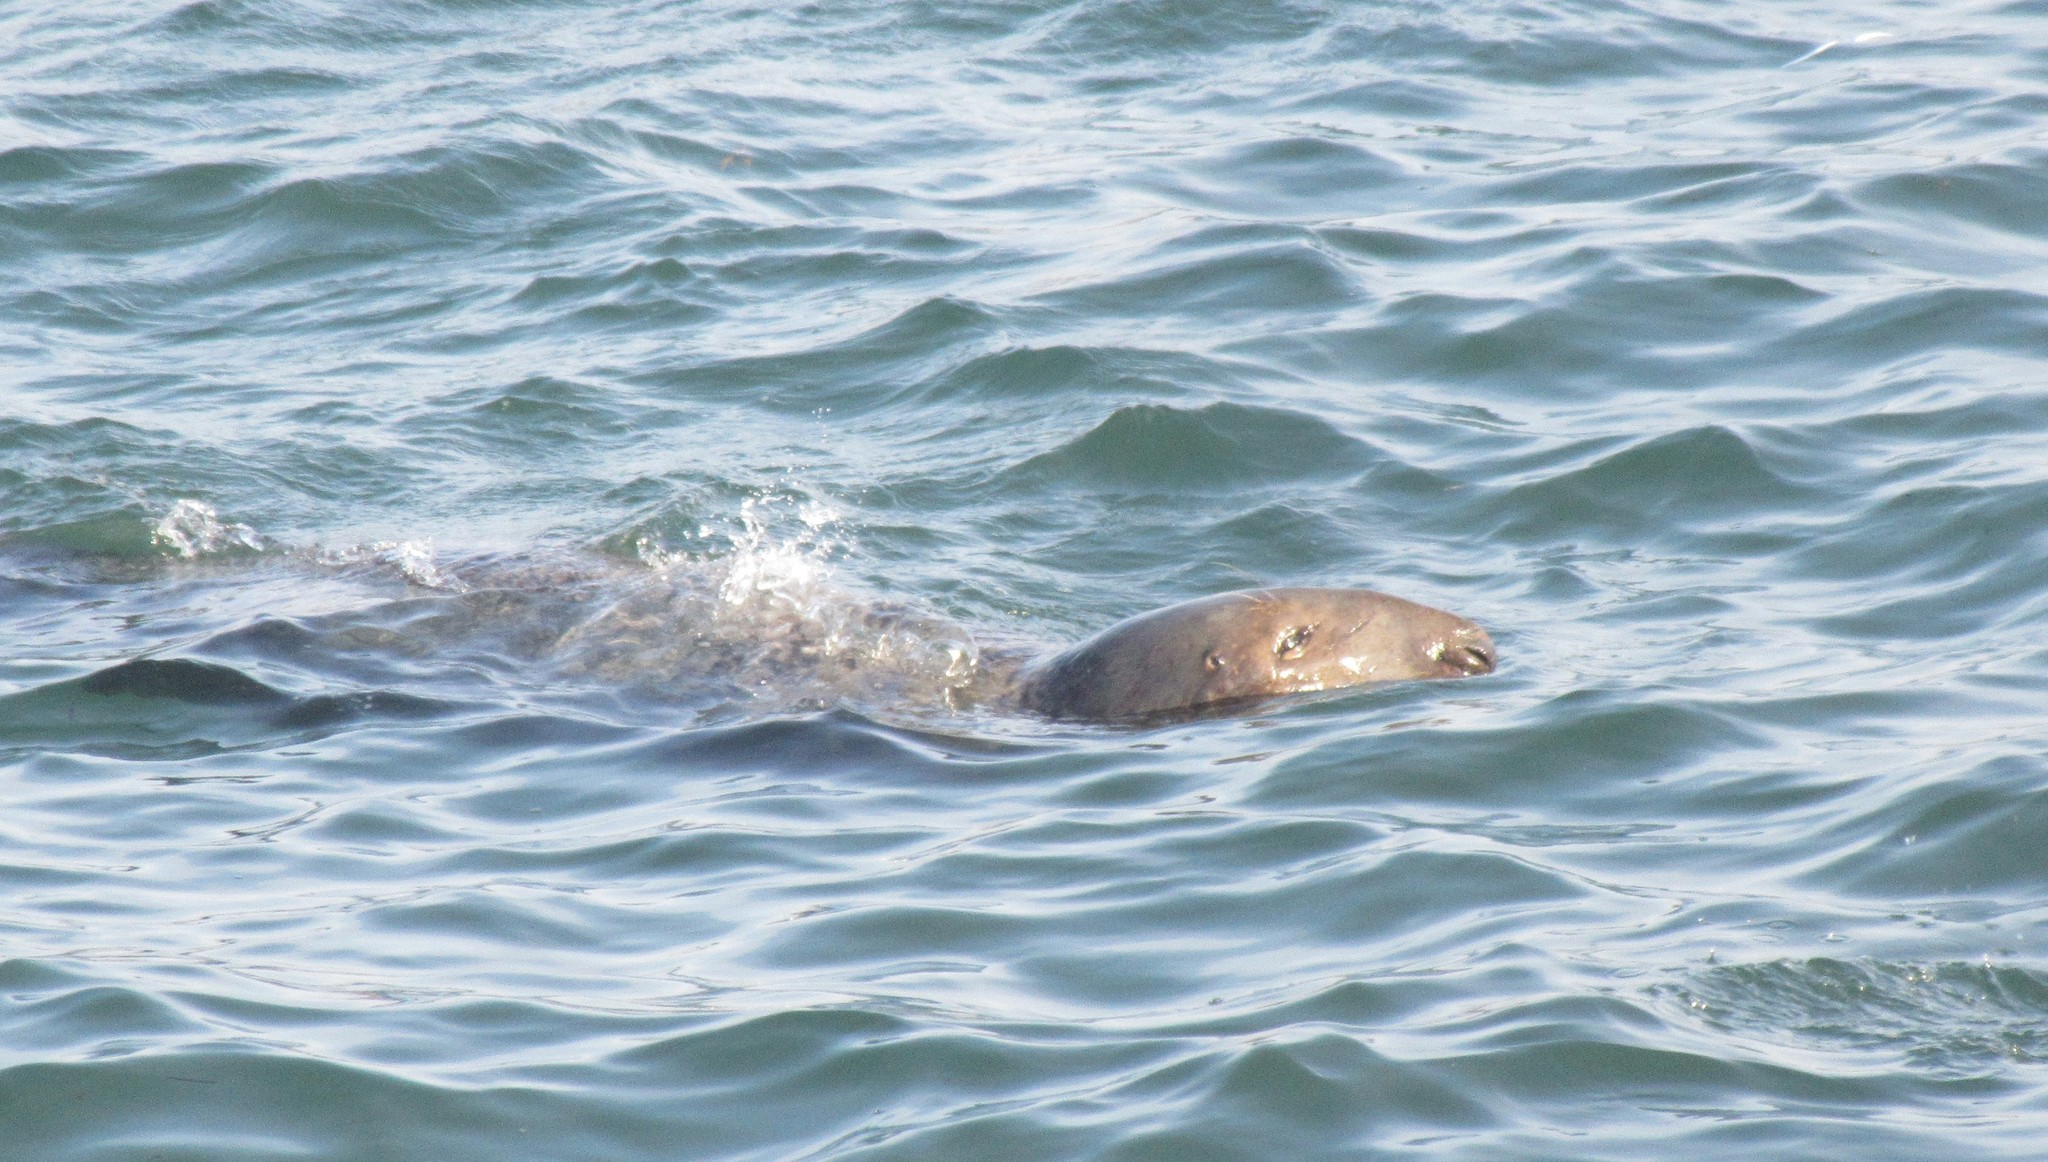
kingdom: Animalia
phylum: Chordata
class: Mammalia
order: Carnivora
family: Phocidae
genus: Halichoerus
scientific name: Halichoerus grypus
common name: Grey seal
